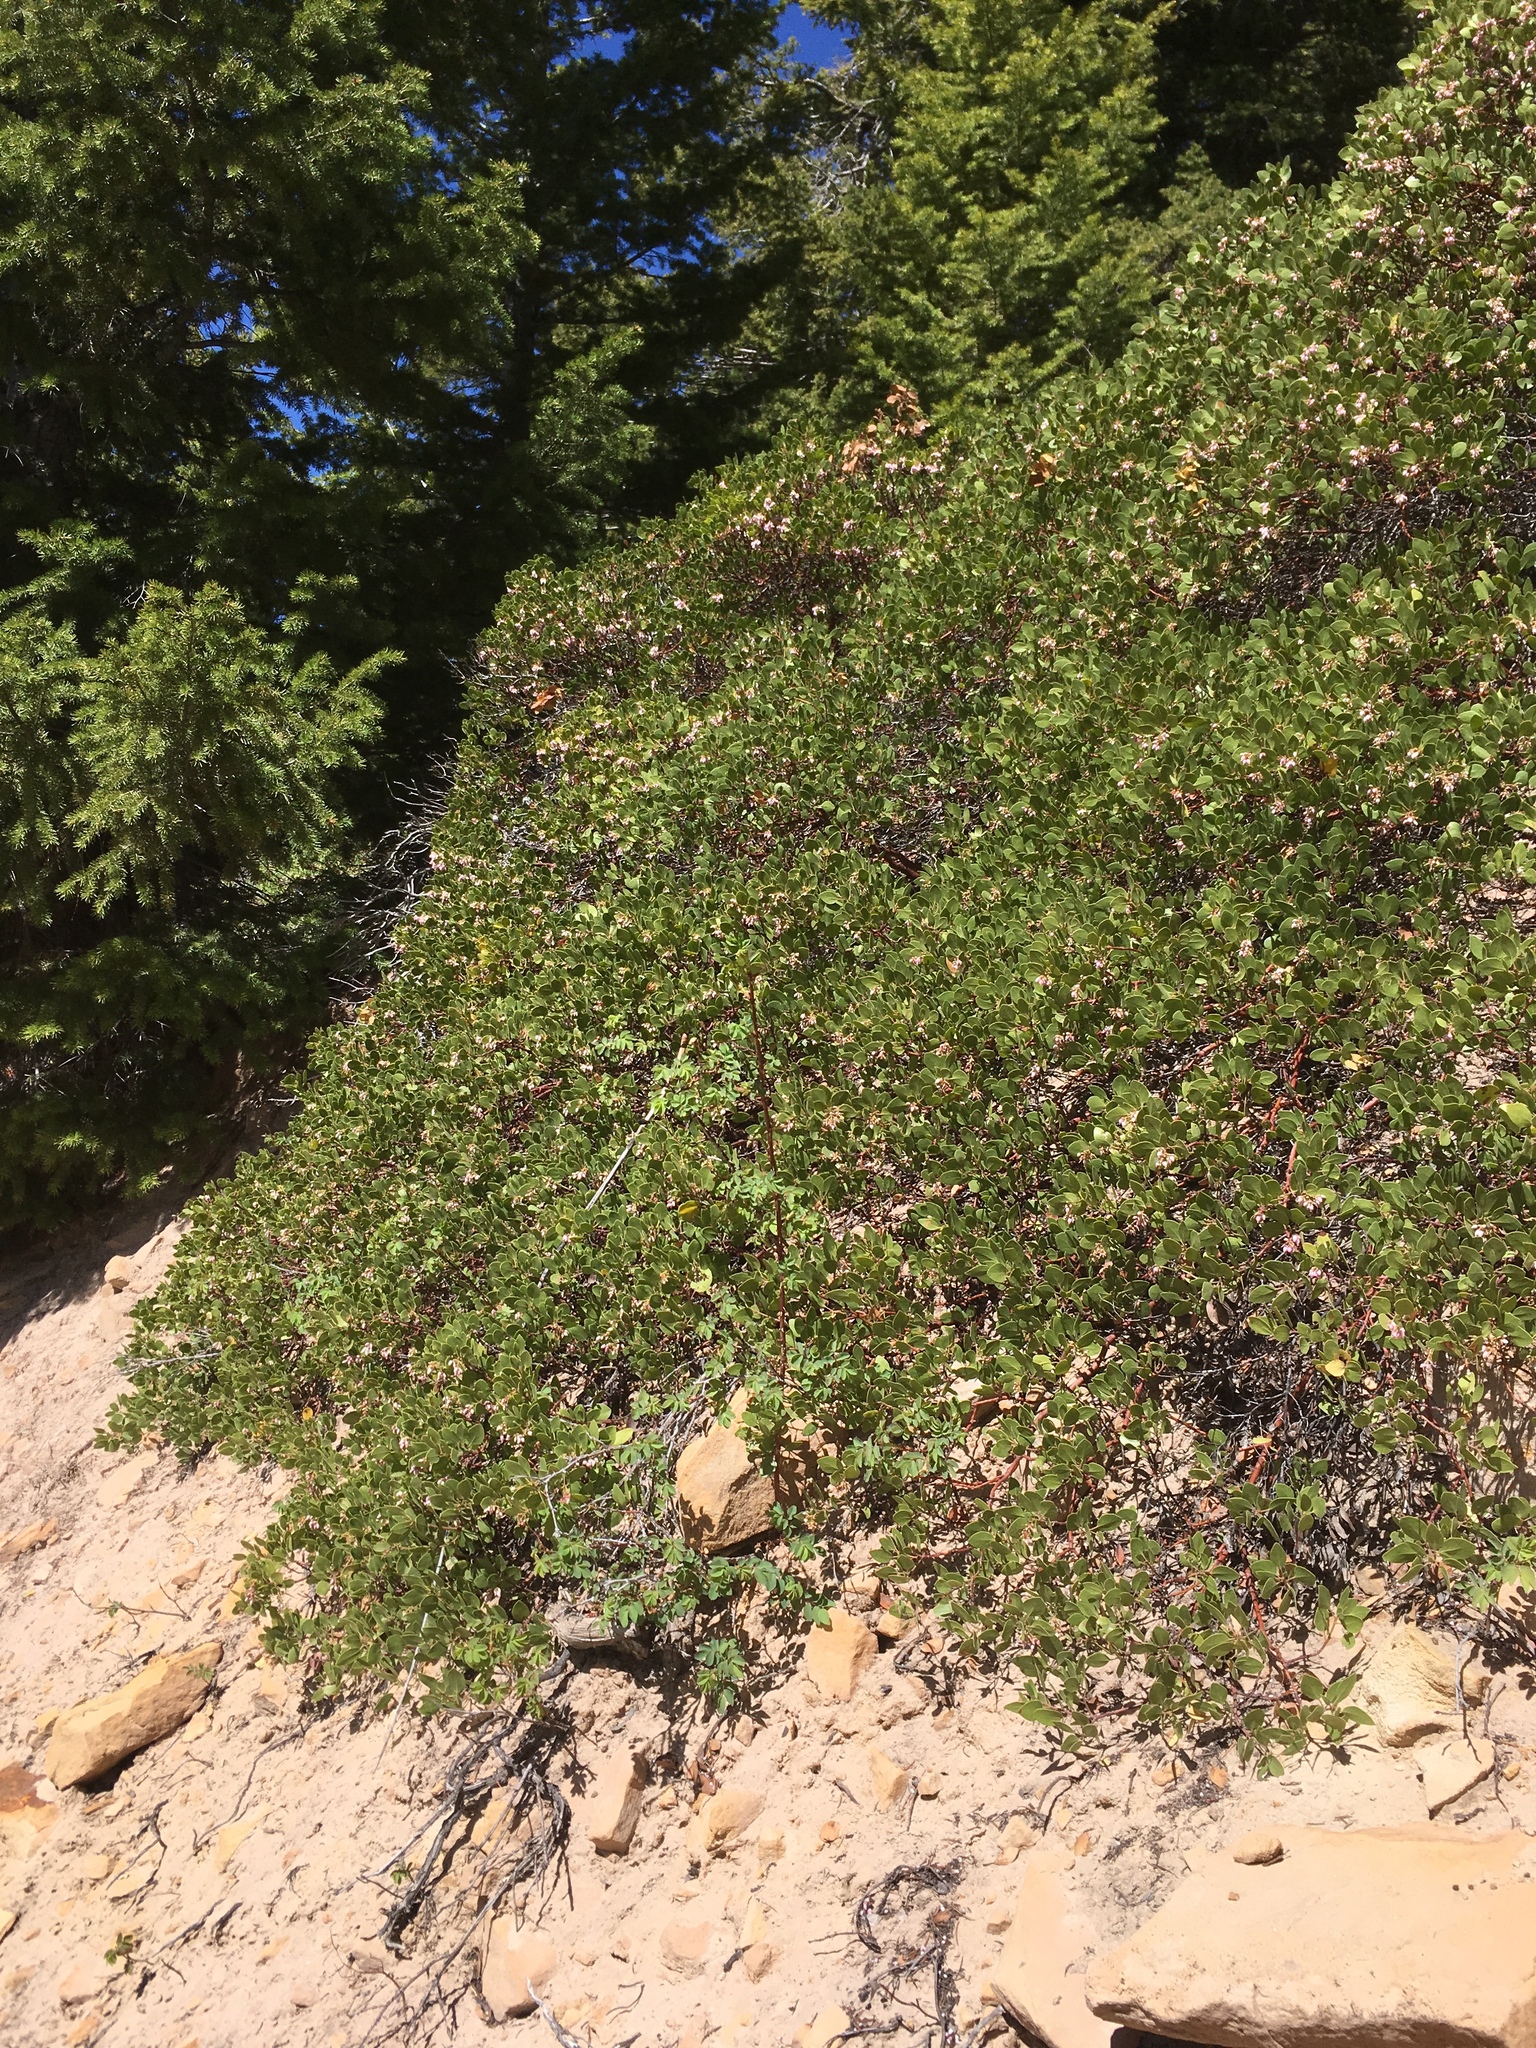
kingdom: Plantae
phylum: Tracheophyta
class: Magnoliopsida
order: Ericales
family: Ericaceae
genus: Arctostaphylos
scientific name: Arctostaphylos patula
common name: Green-leaf manzanita
